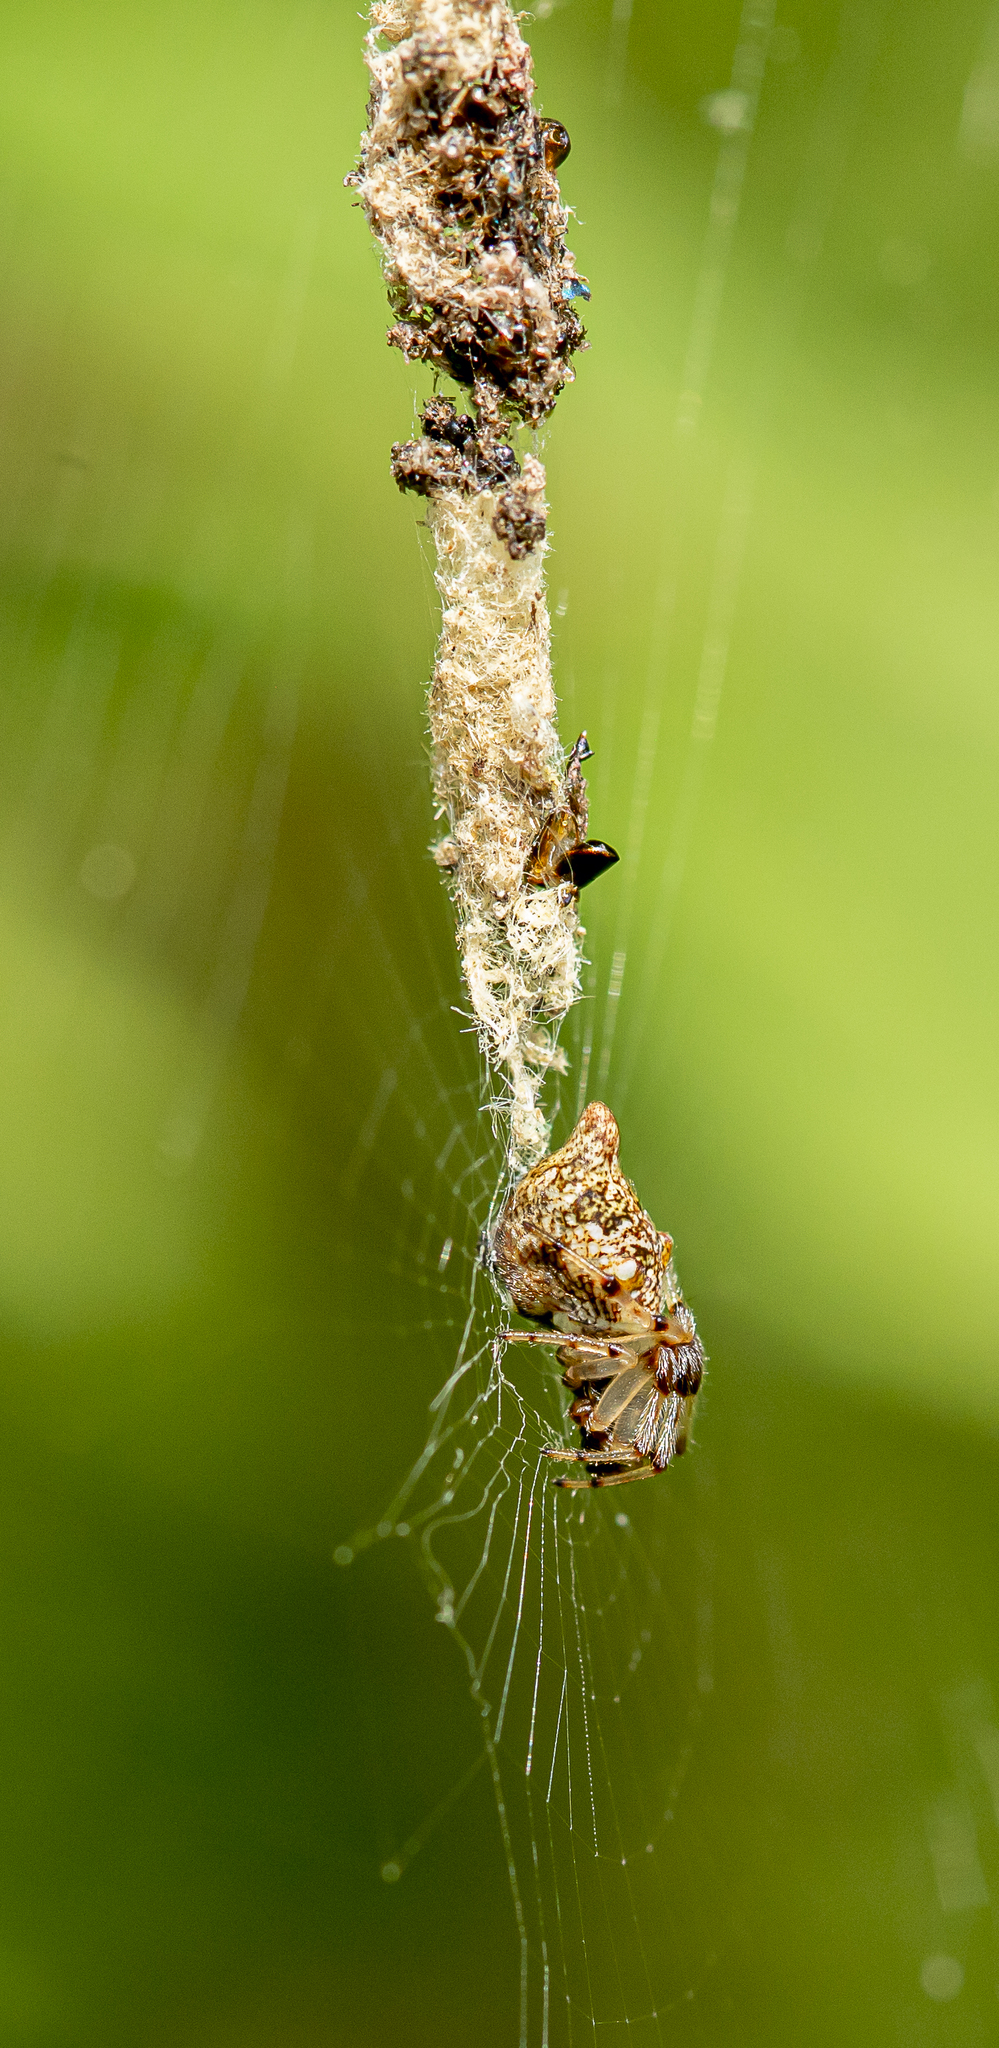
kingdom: Animalia
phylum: Arthropoda
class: Arachnida
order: Araneae
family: Araneidae
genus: Cyclosa
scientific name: Cyclosa turbinata
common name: Orb weavers
